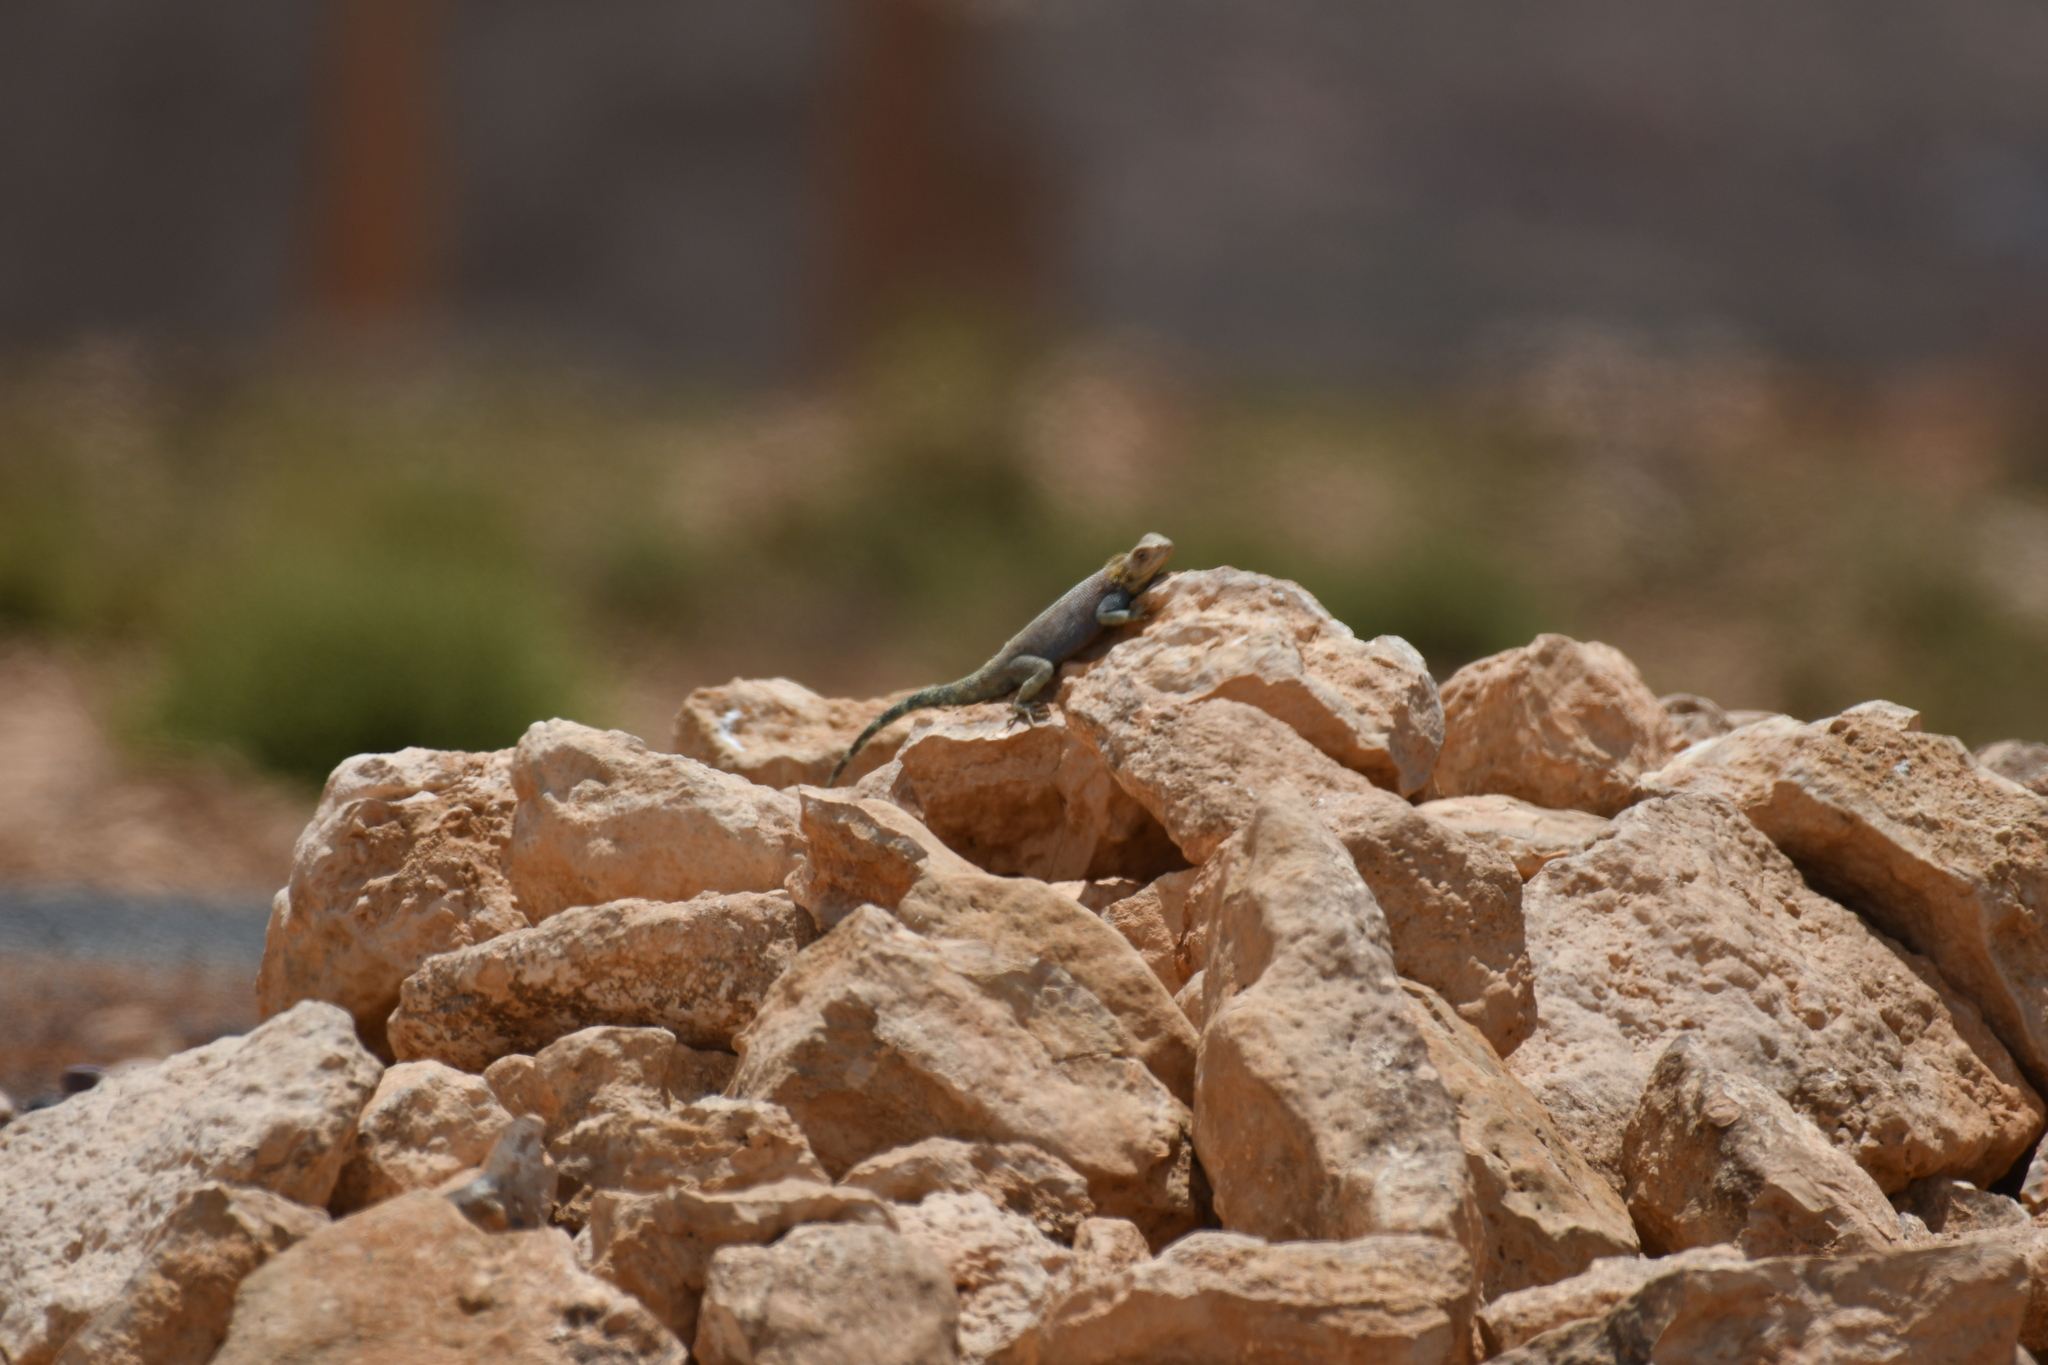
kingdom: Animalia
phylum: Chordata
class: Squamata
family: Agamidae
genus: Agama
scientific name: Agama impalearis
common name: Bibron's agama
